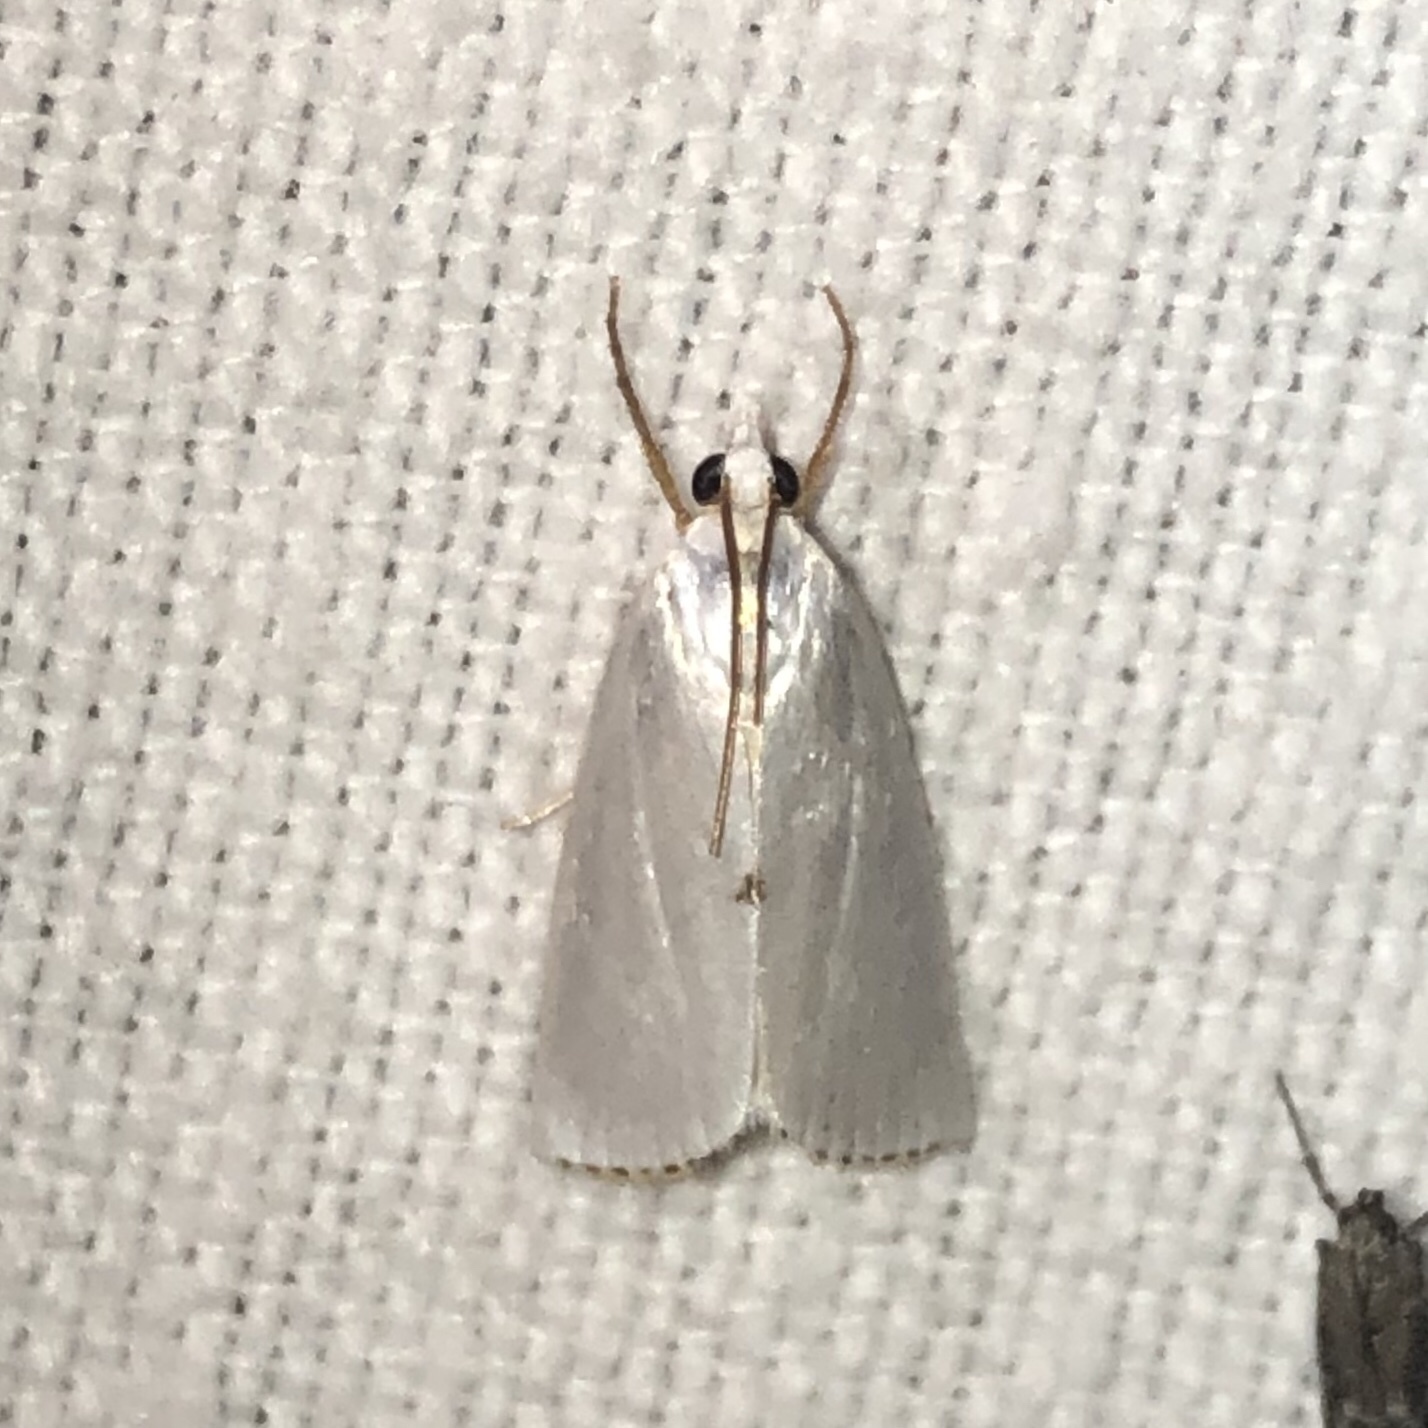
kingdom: Animalia
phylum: Arthropoda
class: Insecta
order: Lepidoptera
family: Crambidae
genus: Argyria
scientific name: Argyria nivalis
